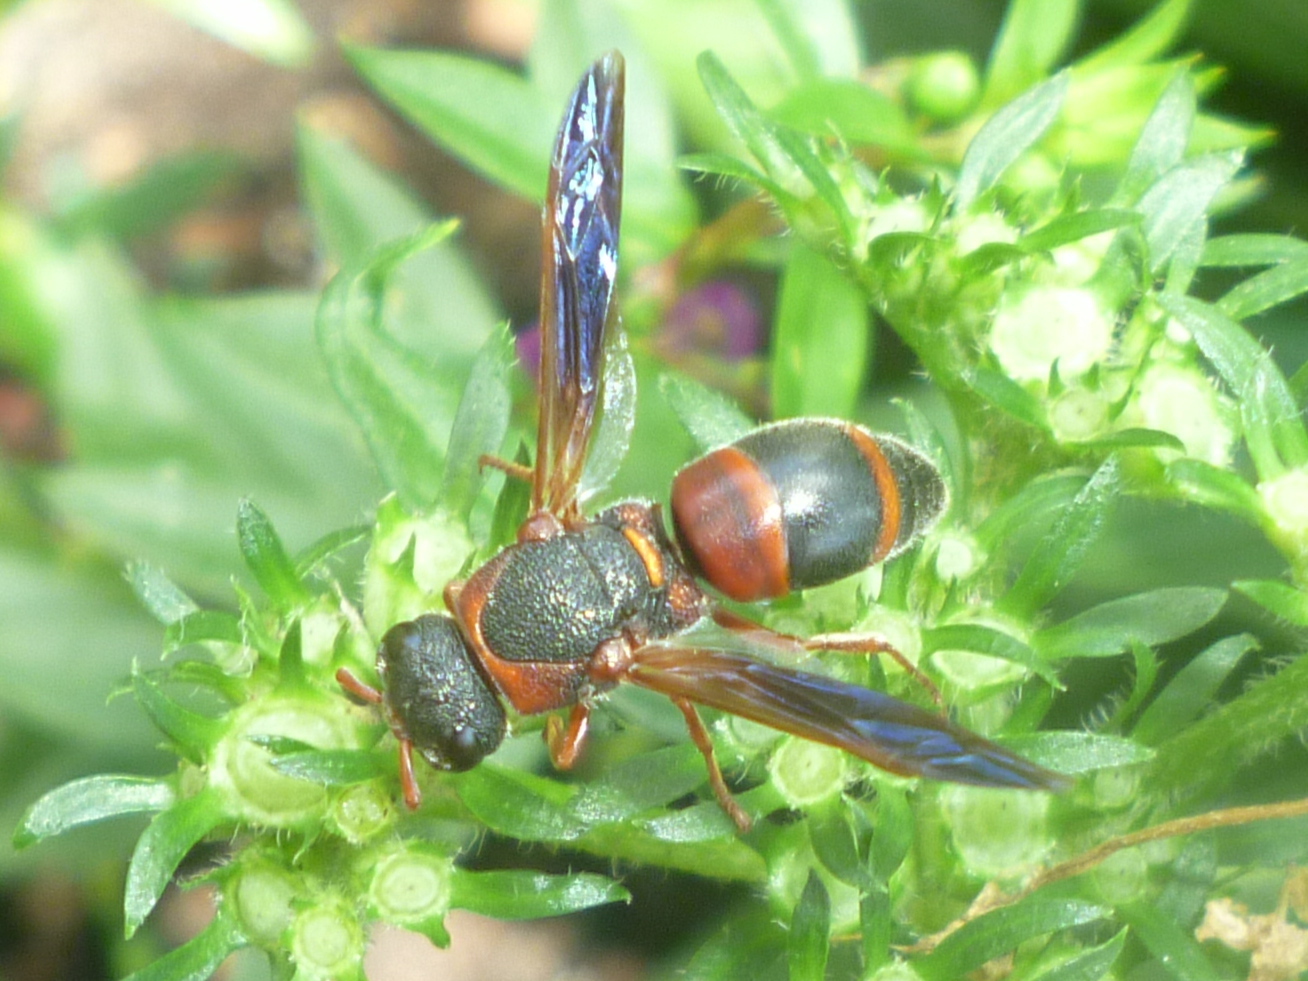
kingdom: Animalia
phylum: Arthropoda
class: Insecta
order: Hymenoptera
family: Eumenidae
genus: Pachodynerus
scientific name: Pachodynerus erynnis
